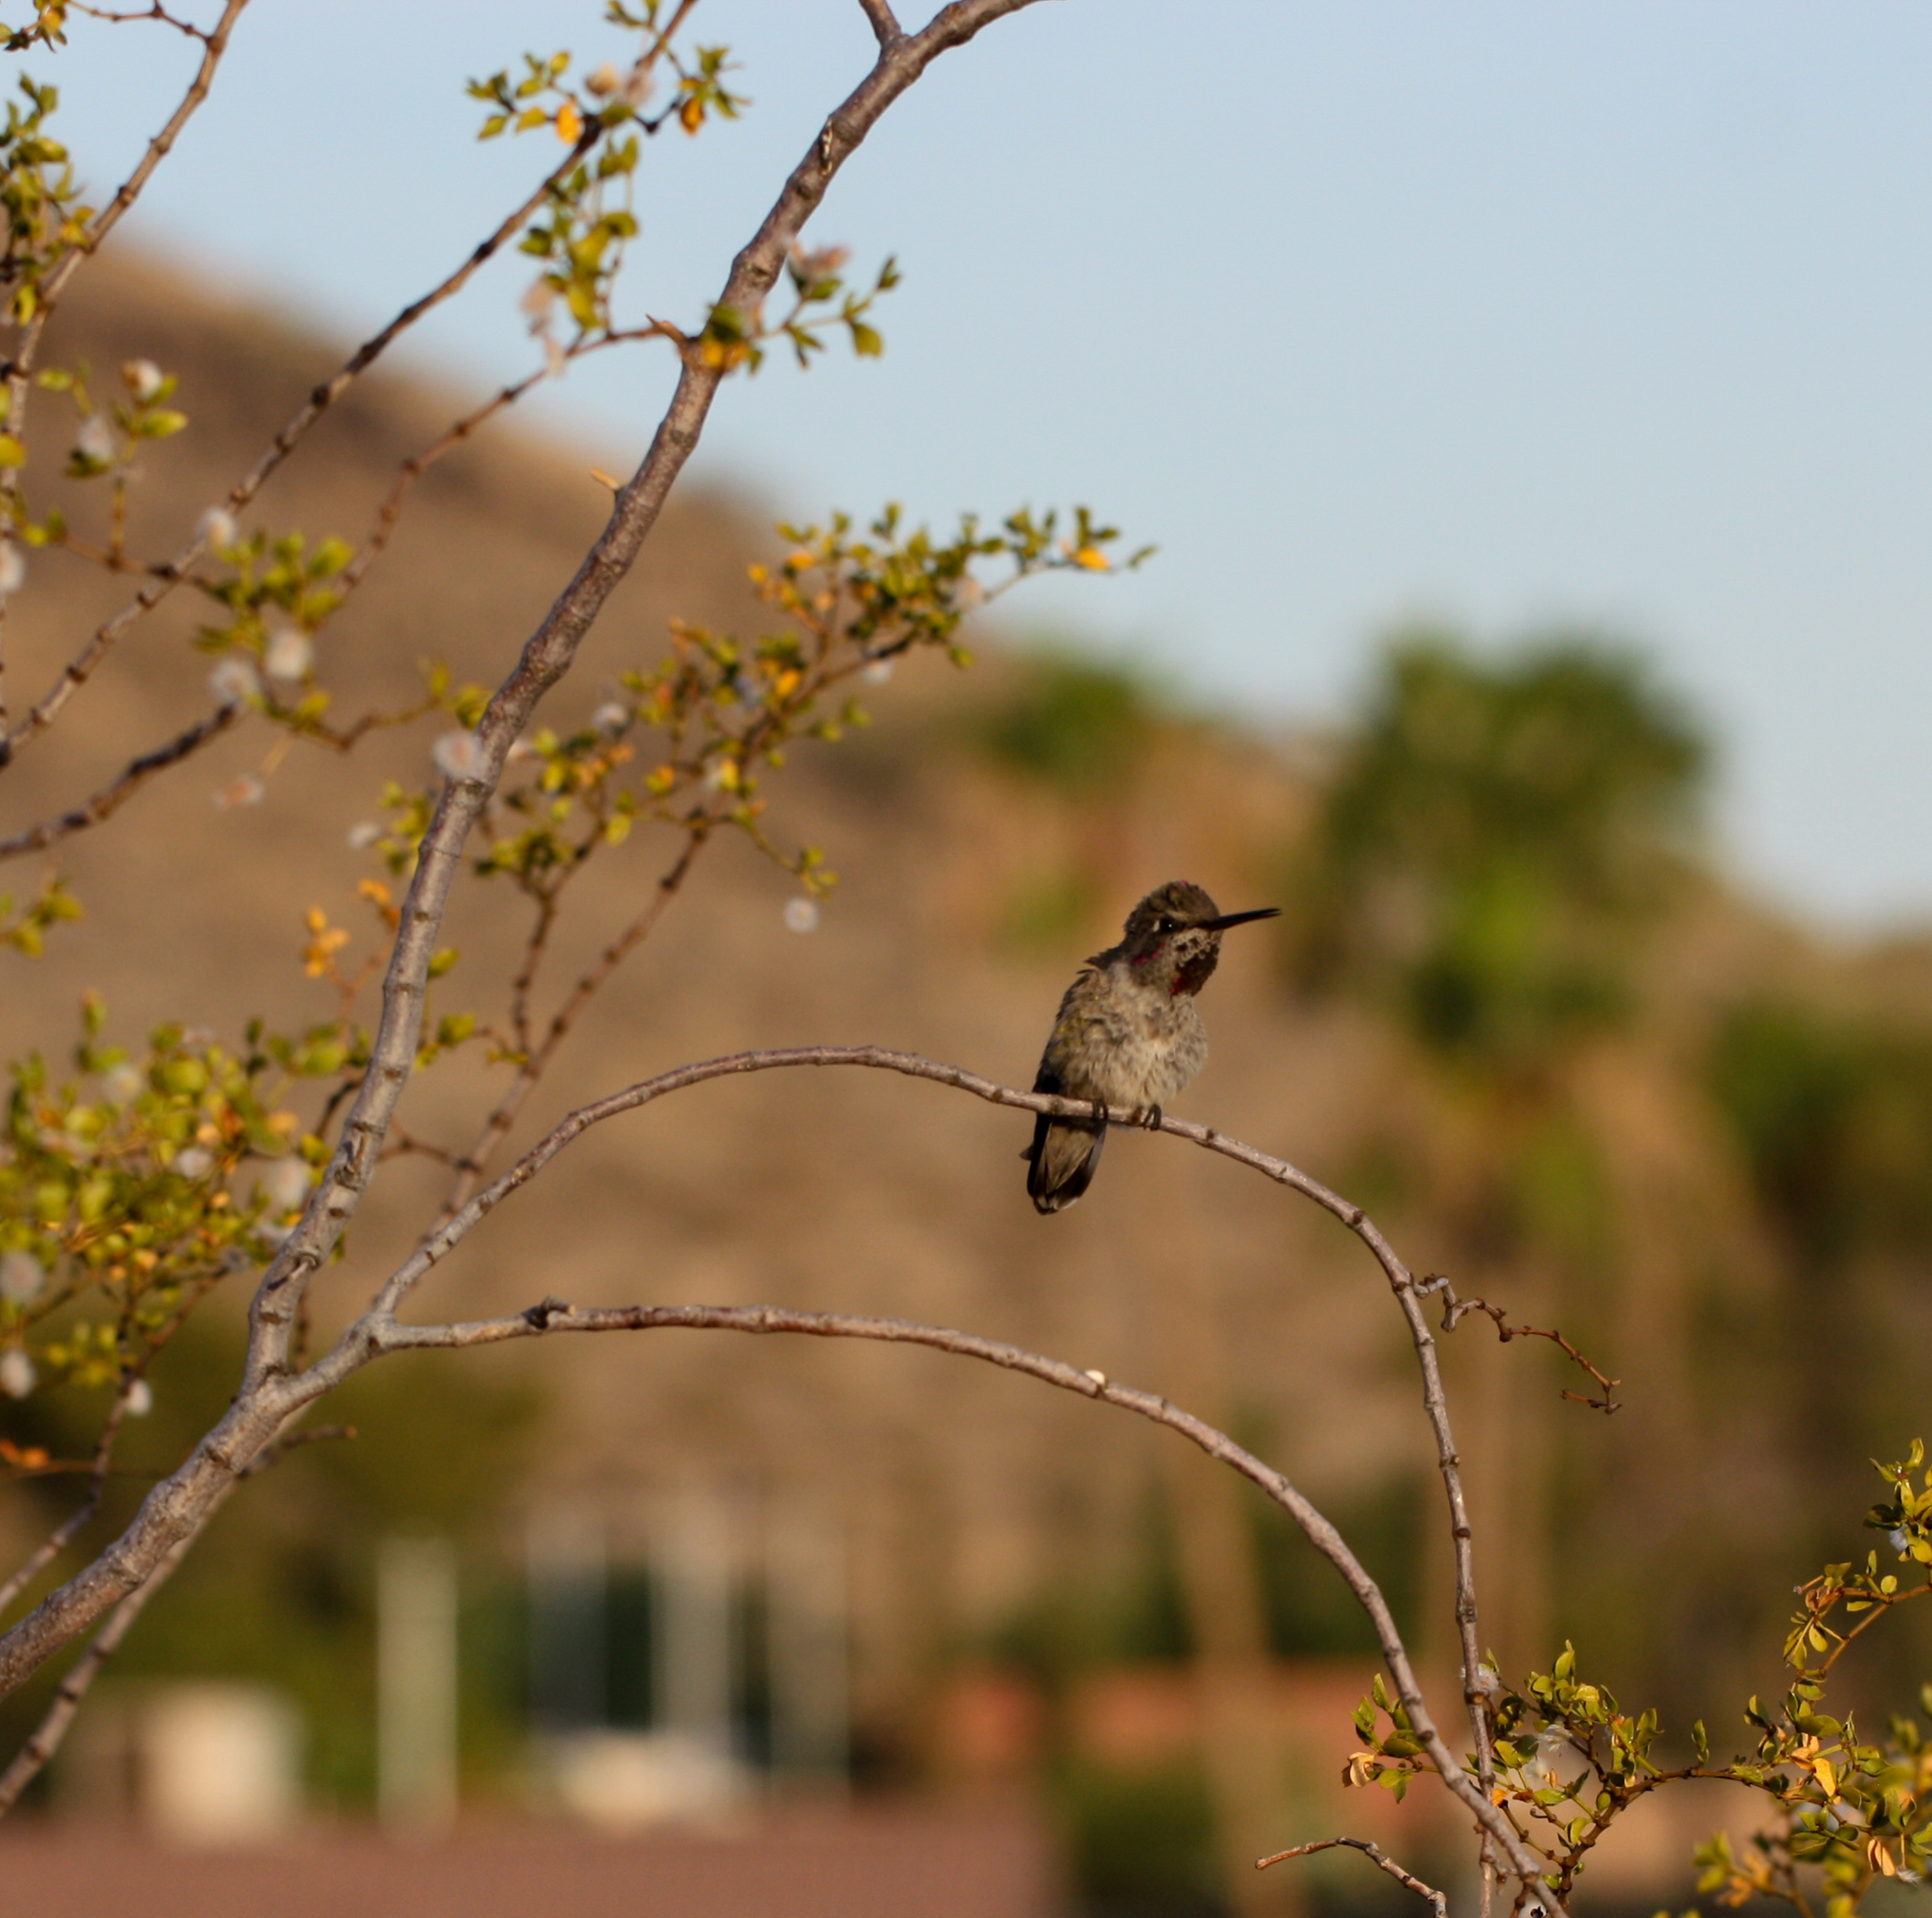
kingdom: Animalia
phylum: Chordata
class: Aves
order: Apodiformes
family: Trochilidae
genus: Calypte
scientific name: Calypte anna
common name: Anna's hummingbird
